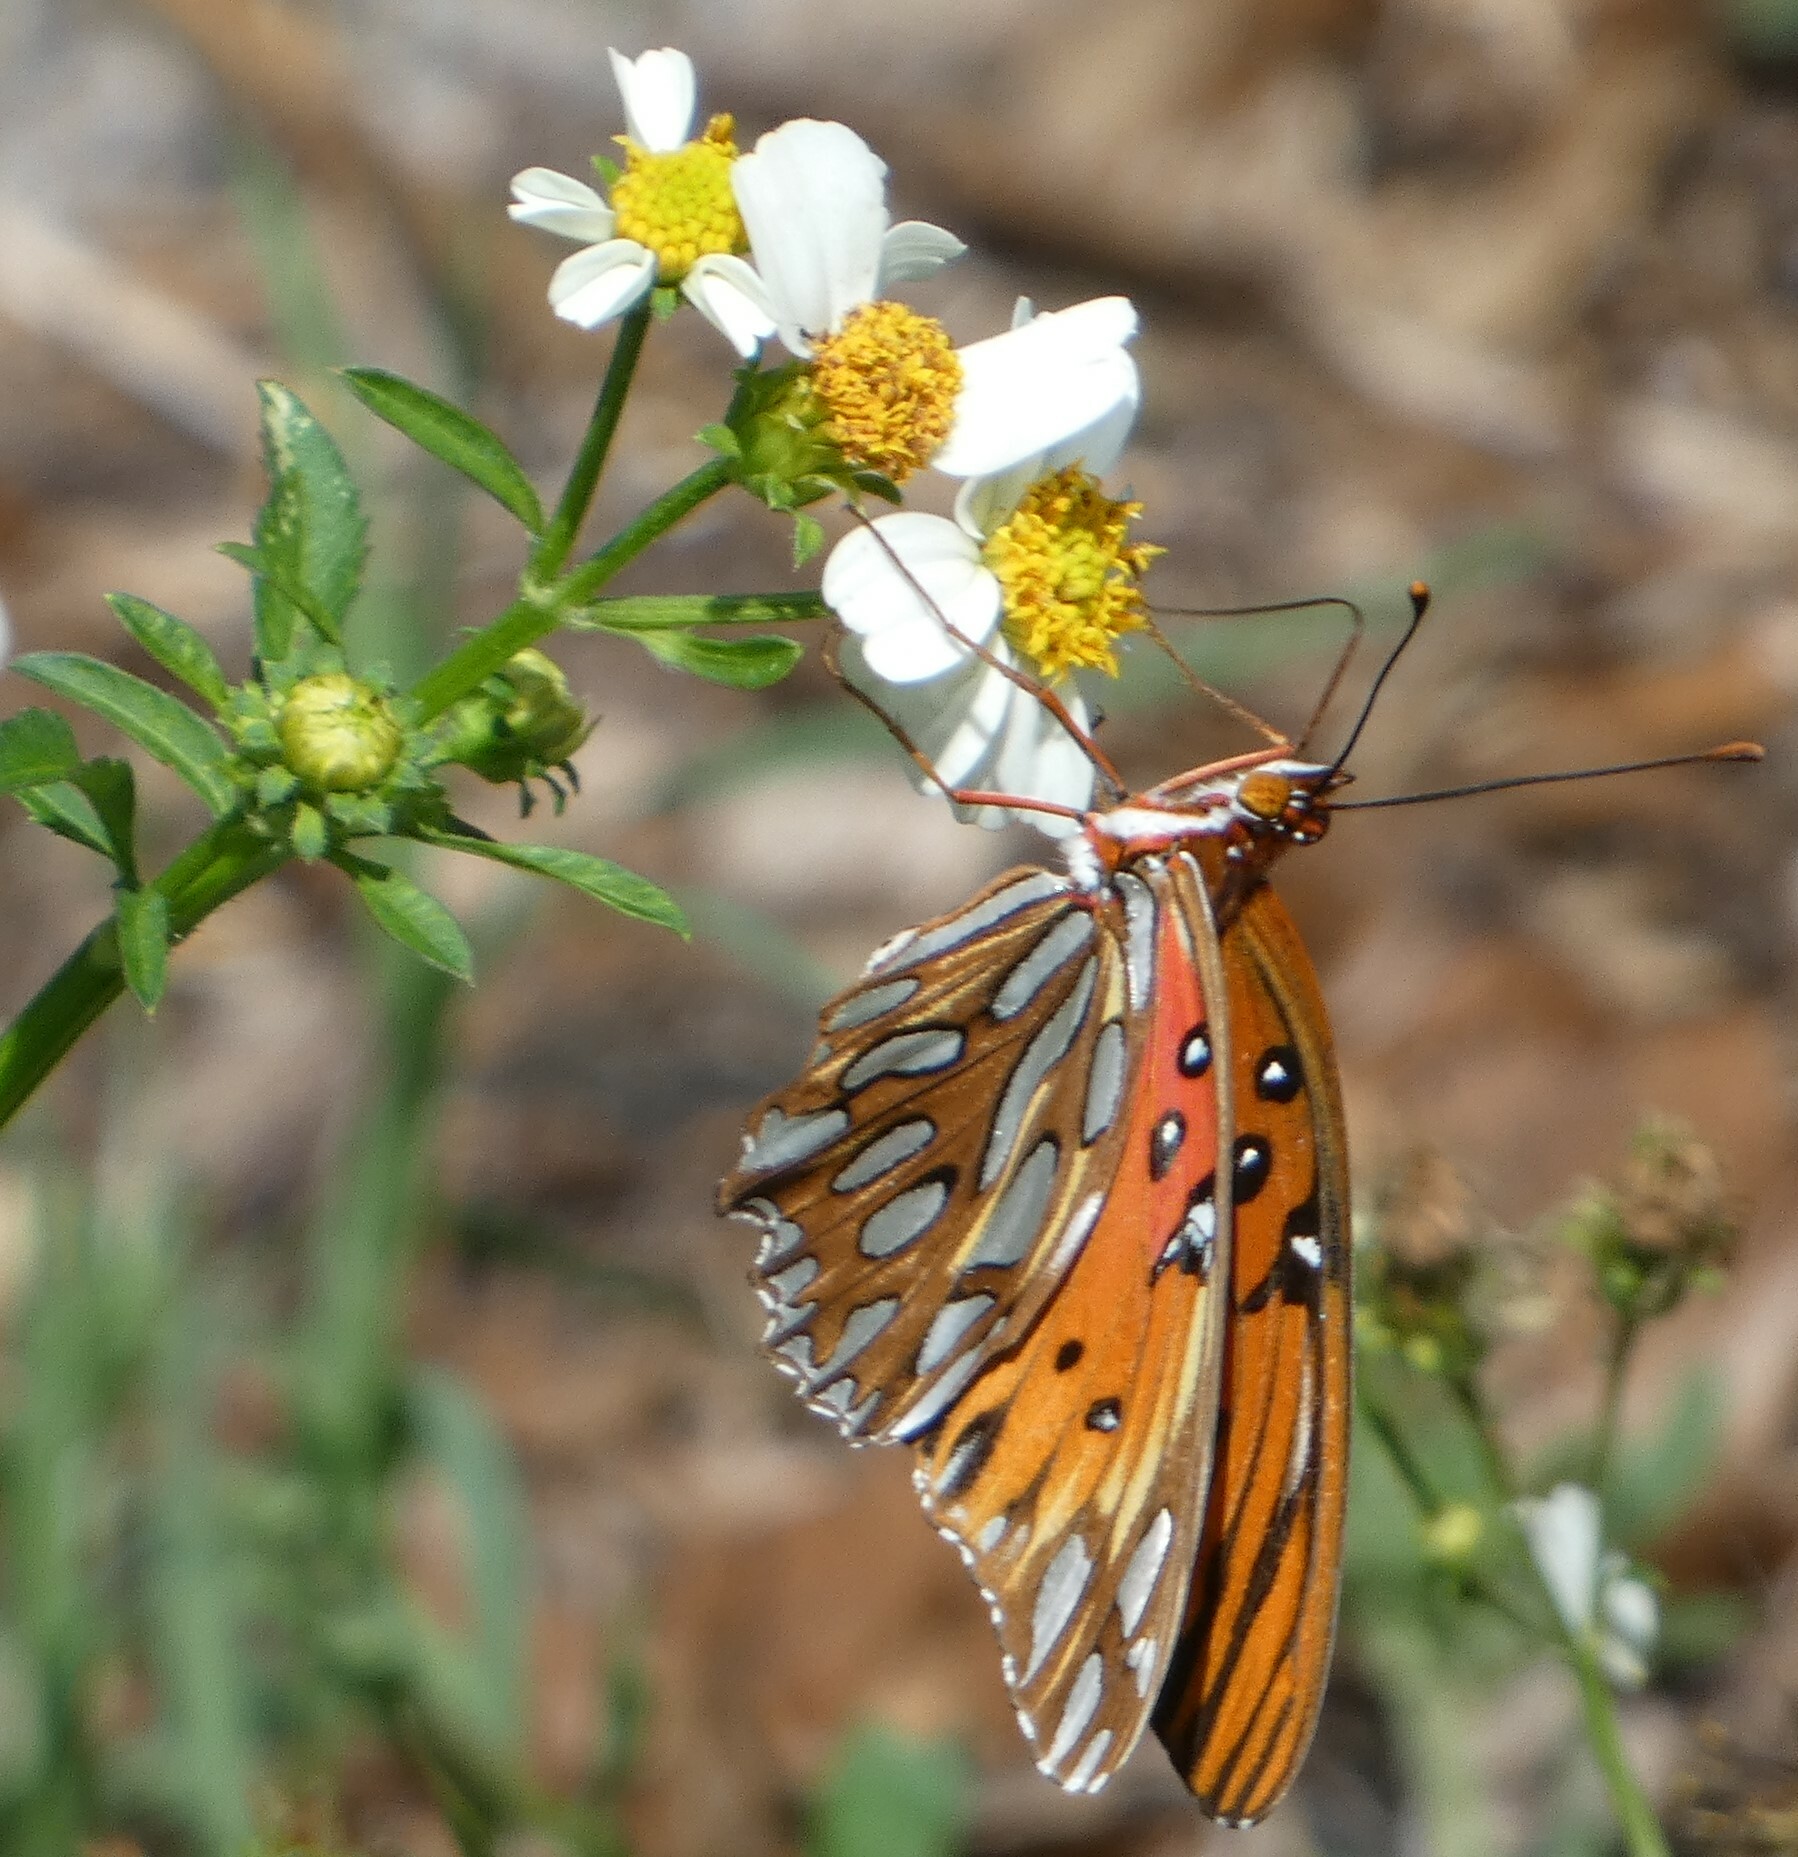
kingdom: Animalia
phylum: Arthropoda
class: Insecta
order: Lepidoptera
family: Nymphalidae
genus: Dione
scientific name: Dione vanillae
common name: Gulf fritillary
